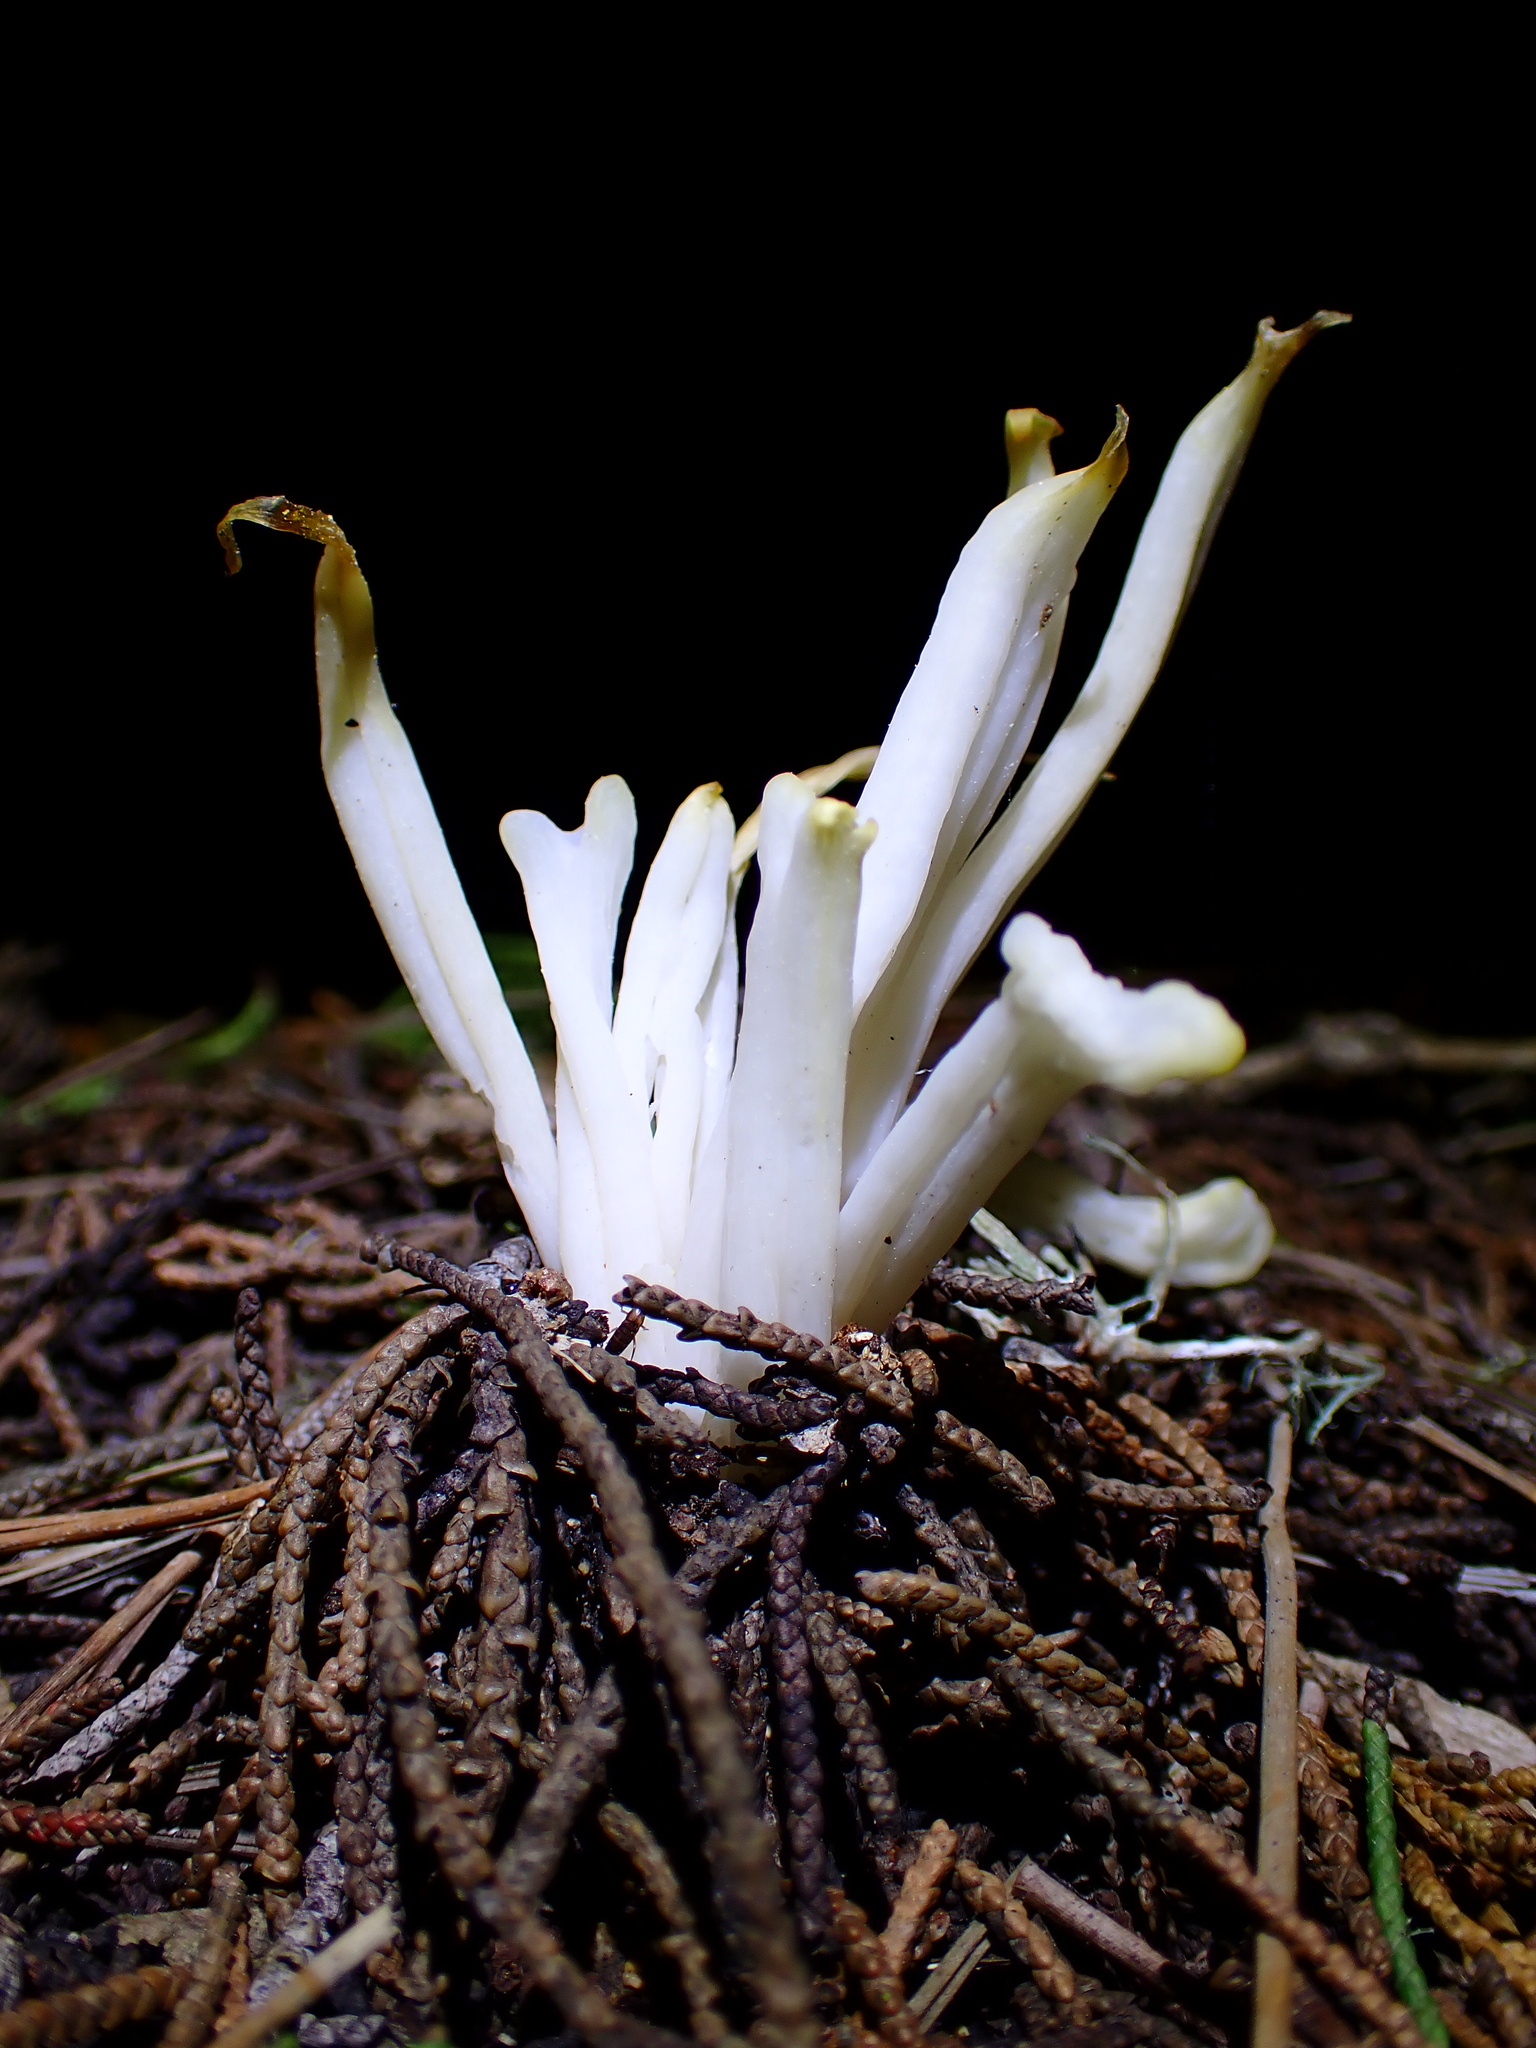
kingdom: Fungi
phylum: Basidiomycota
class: Agaricomycetes
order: Agaricales
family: Clavariaceae
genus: Clavaria
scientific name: Clavaria fragilis
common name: White spindles
